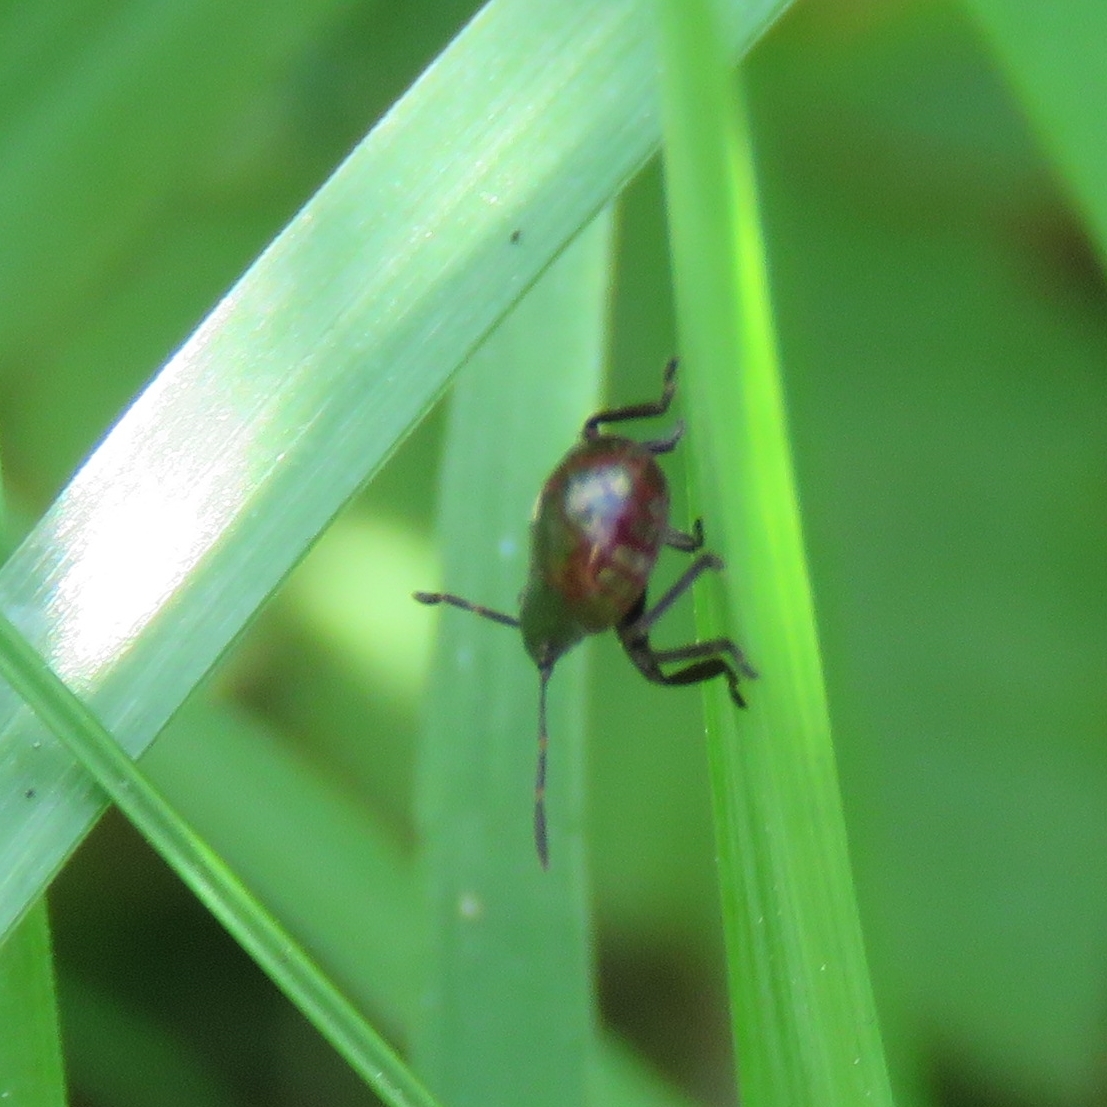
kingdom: Animalia
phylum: Arthropoda
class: Insecta
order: Hemiptera
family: Pentatomidae
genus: Picromerus
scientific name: Picromerus bidens
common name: Spiked shieldbug
